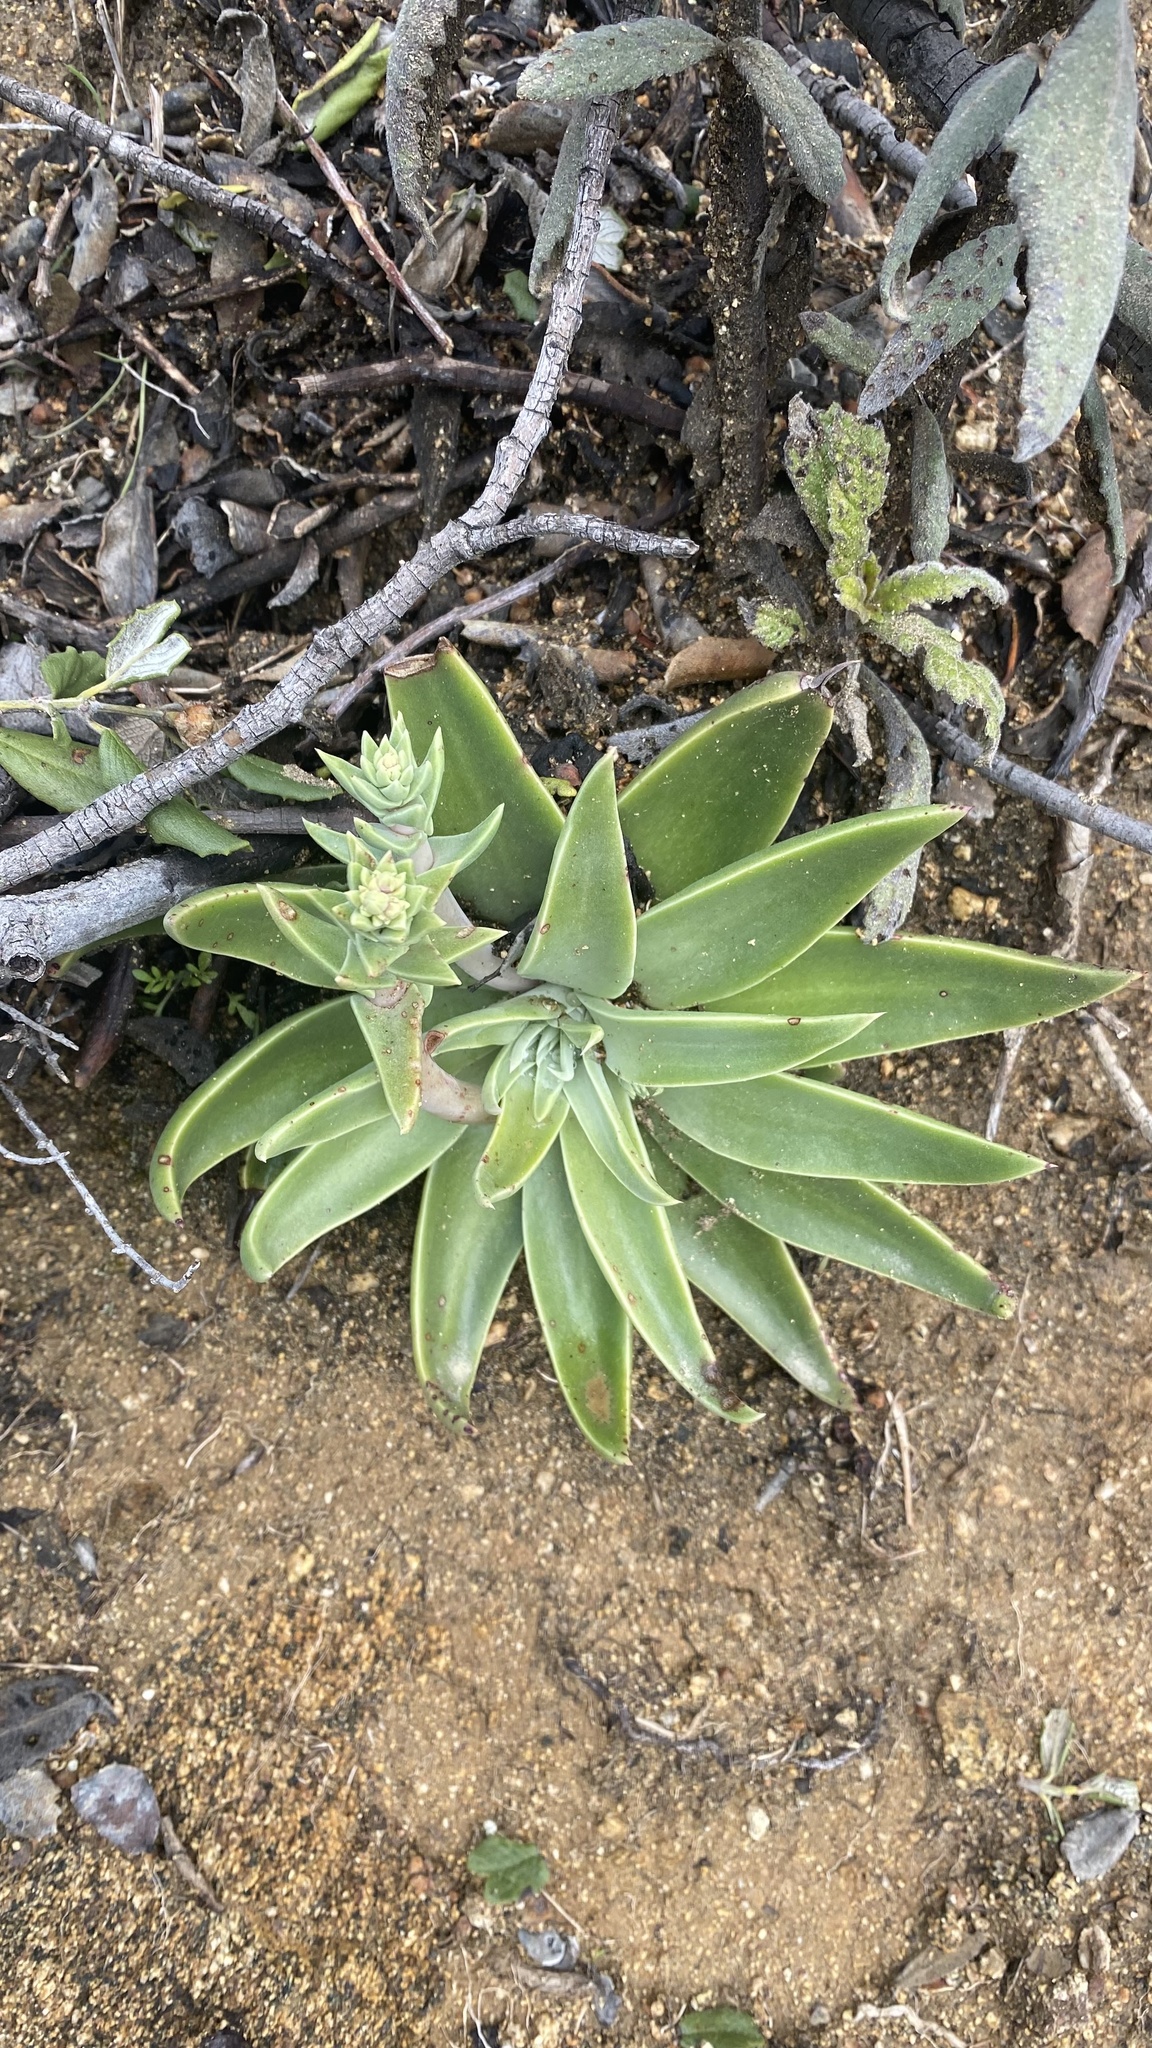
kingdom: Plantae
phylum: Tracheophyta
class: Magnoliopsida
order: Saxifragales
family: Crassulaceae
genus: Dudleya
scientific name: Dudleya lanceolata
